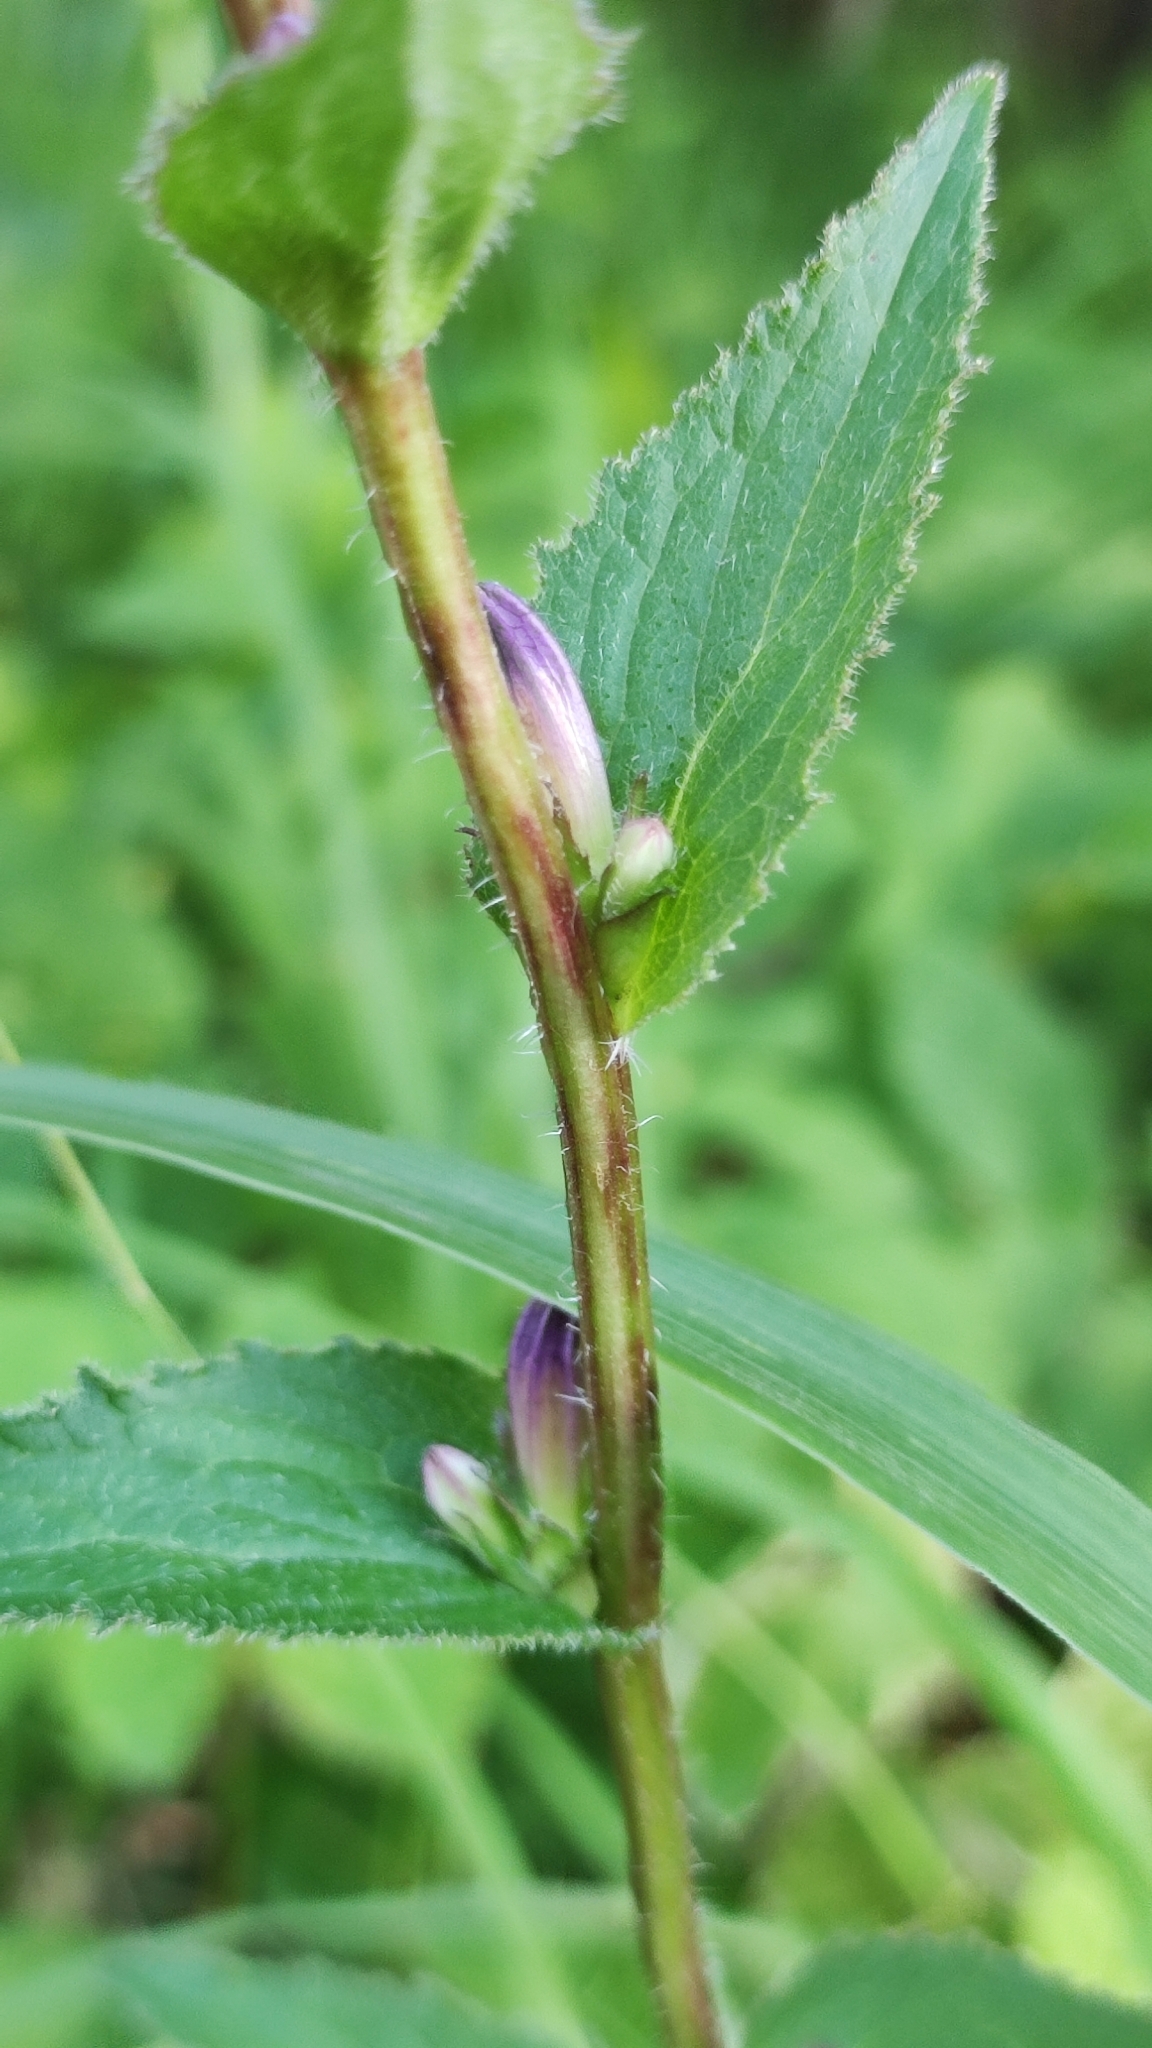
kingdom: Plantae
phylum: Tracheophyta
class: Magnoliopsida
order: Asterales
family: Campanulaceae
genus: Campanula
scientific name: Campanula glomerata
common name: Clustered bellflower
